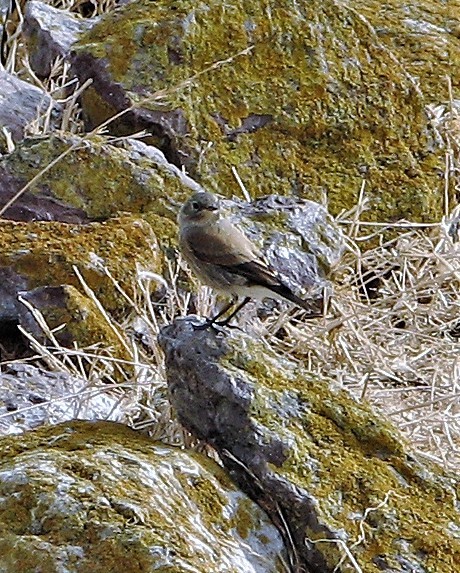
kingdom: Animalia
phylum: Chordata
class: Aves
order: Passeriformes
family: Tyrannidae
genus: Lessonia
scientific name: Lessonia rufa
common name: Austral negrito
